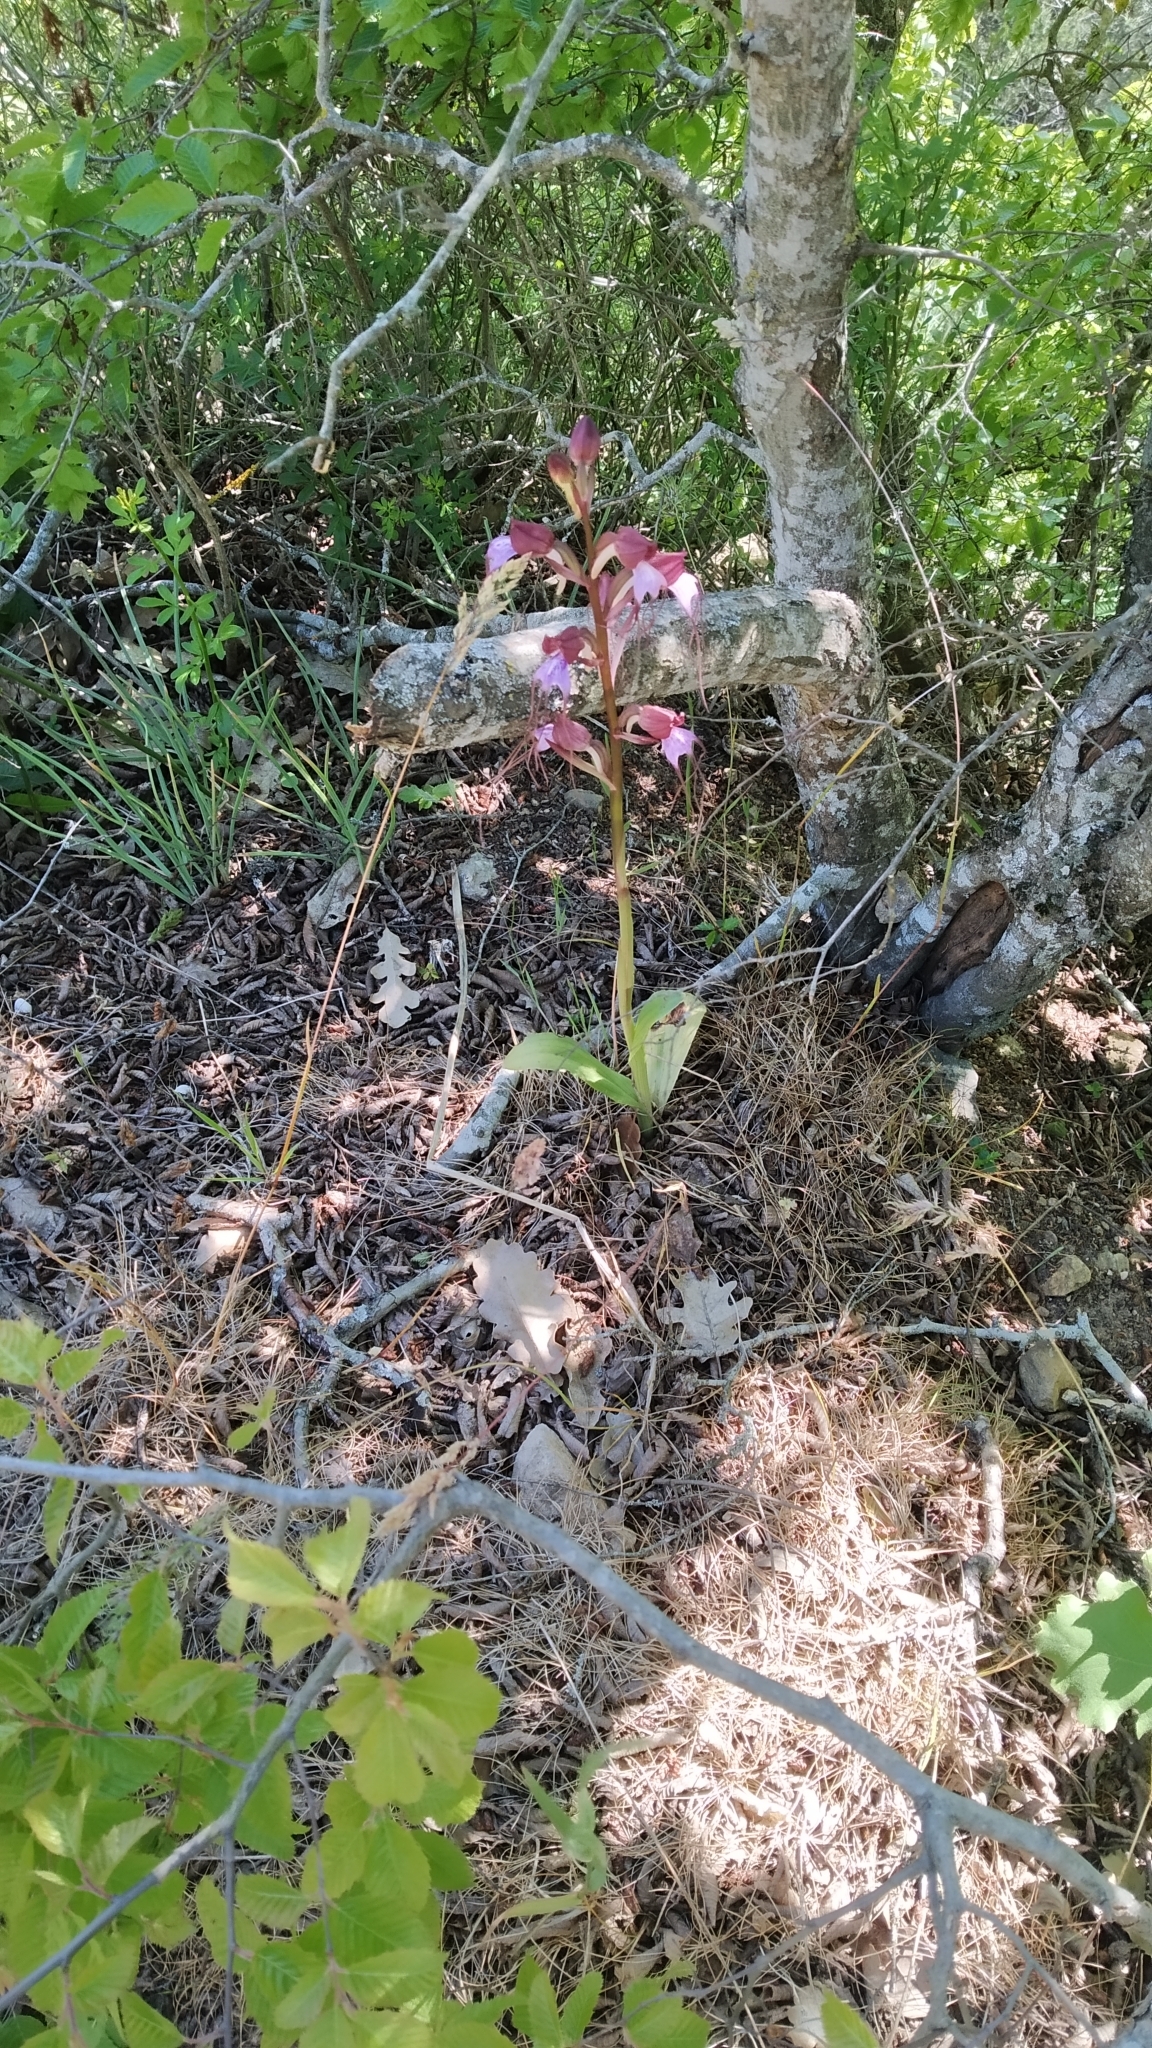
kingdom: Plantae
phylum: Tracheophyta
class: Liliopsida
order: Asparagales
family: Orchidaceae
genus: Himantoglossum
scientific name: Himantoglossum comperianum
